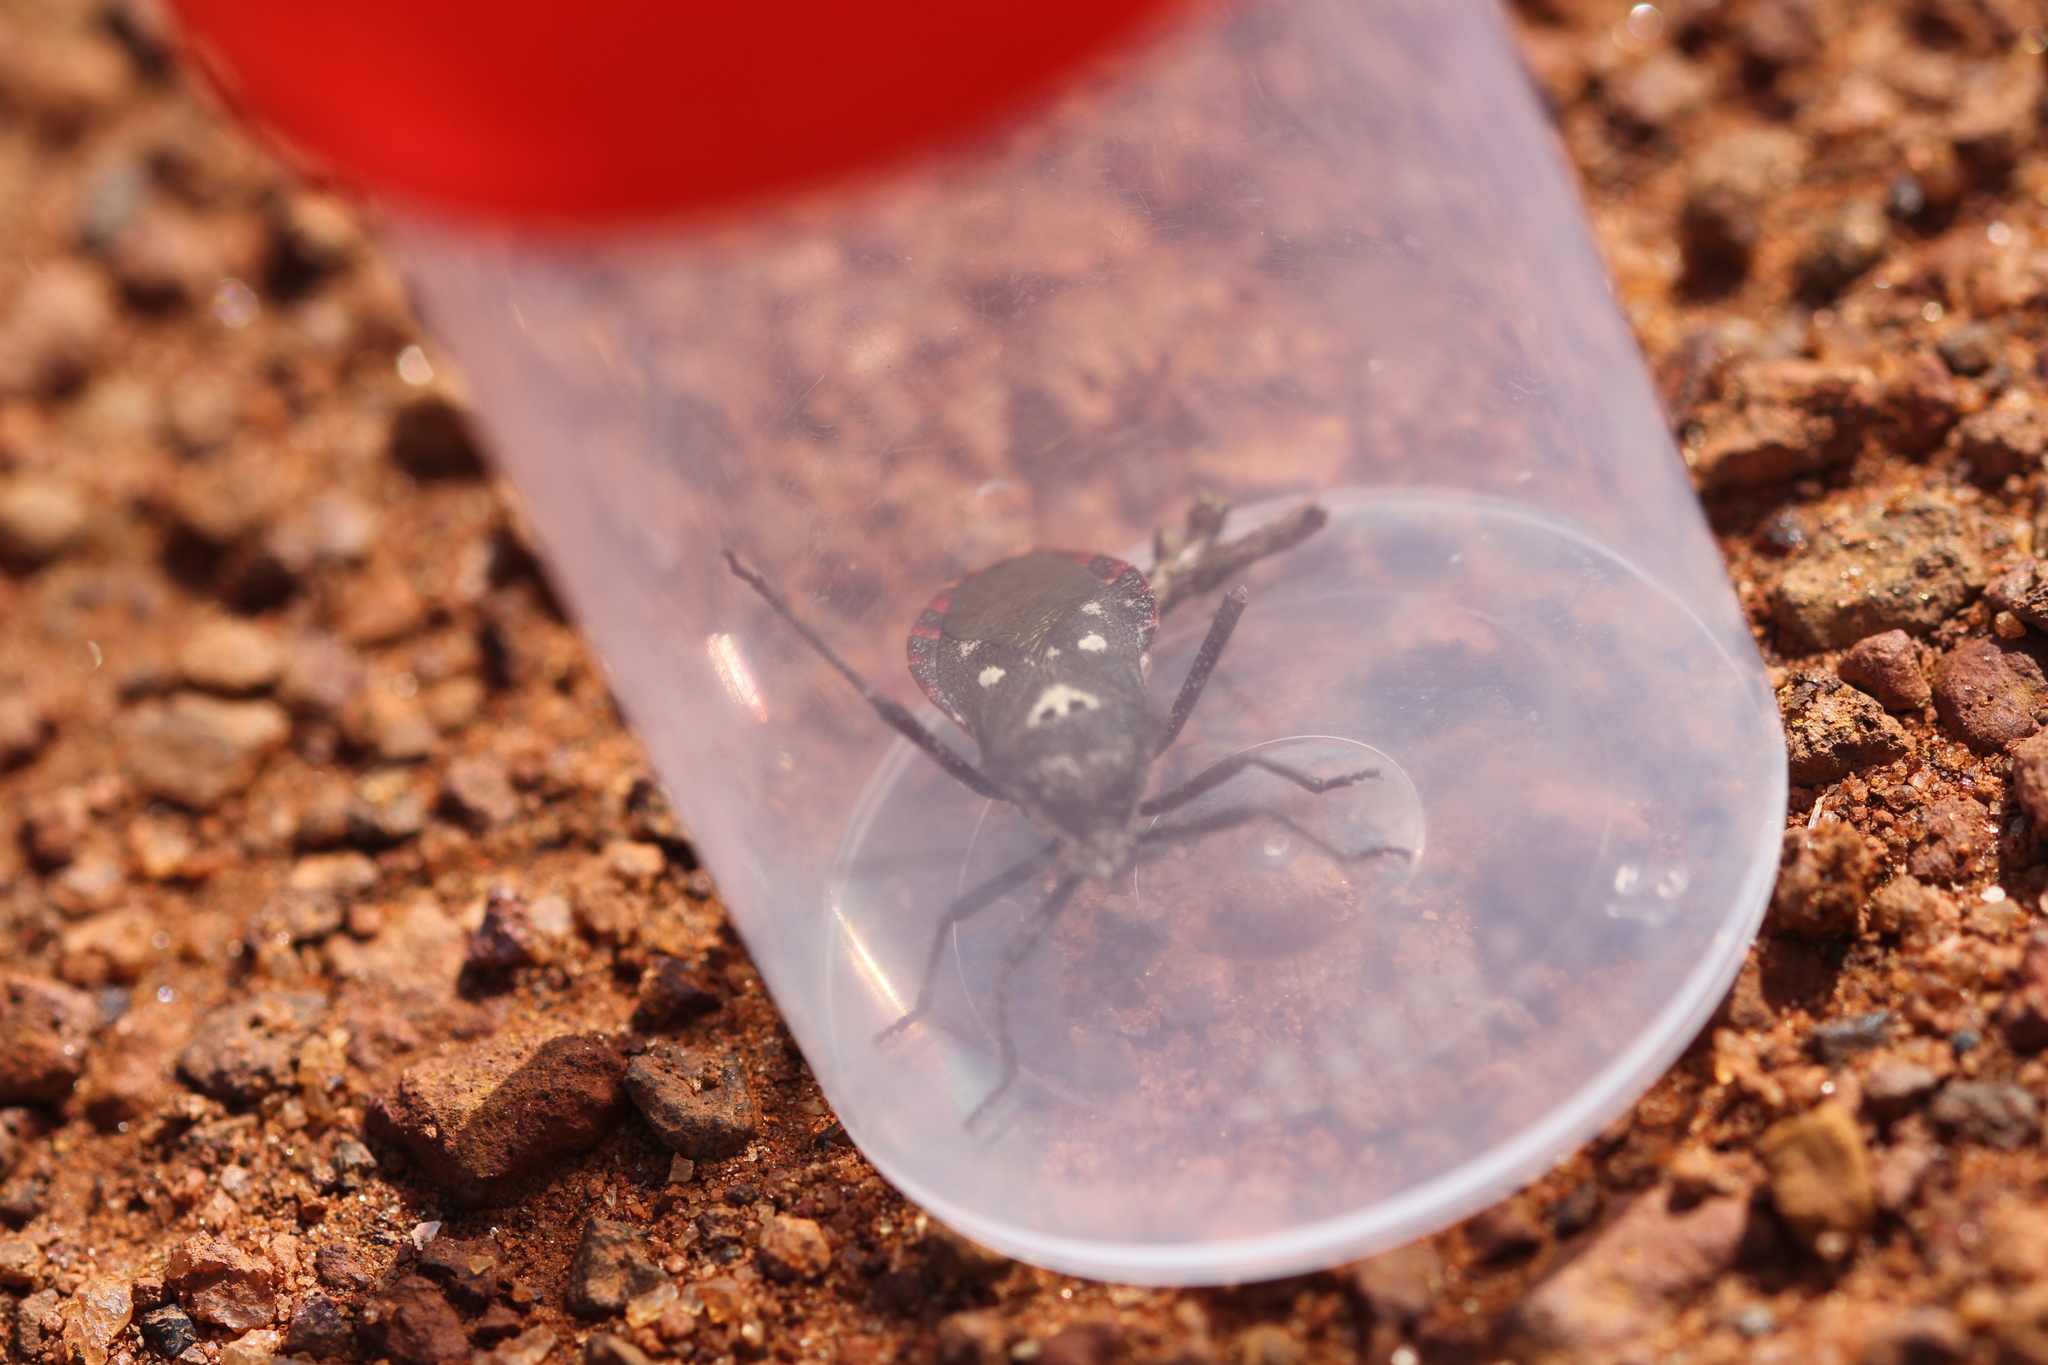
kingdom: Animalia
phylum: Arthropoda
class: Insecta
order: Hemiptera
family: Coreidae
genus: Eubule
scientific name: Eubule farinosa
